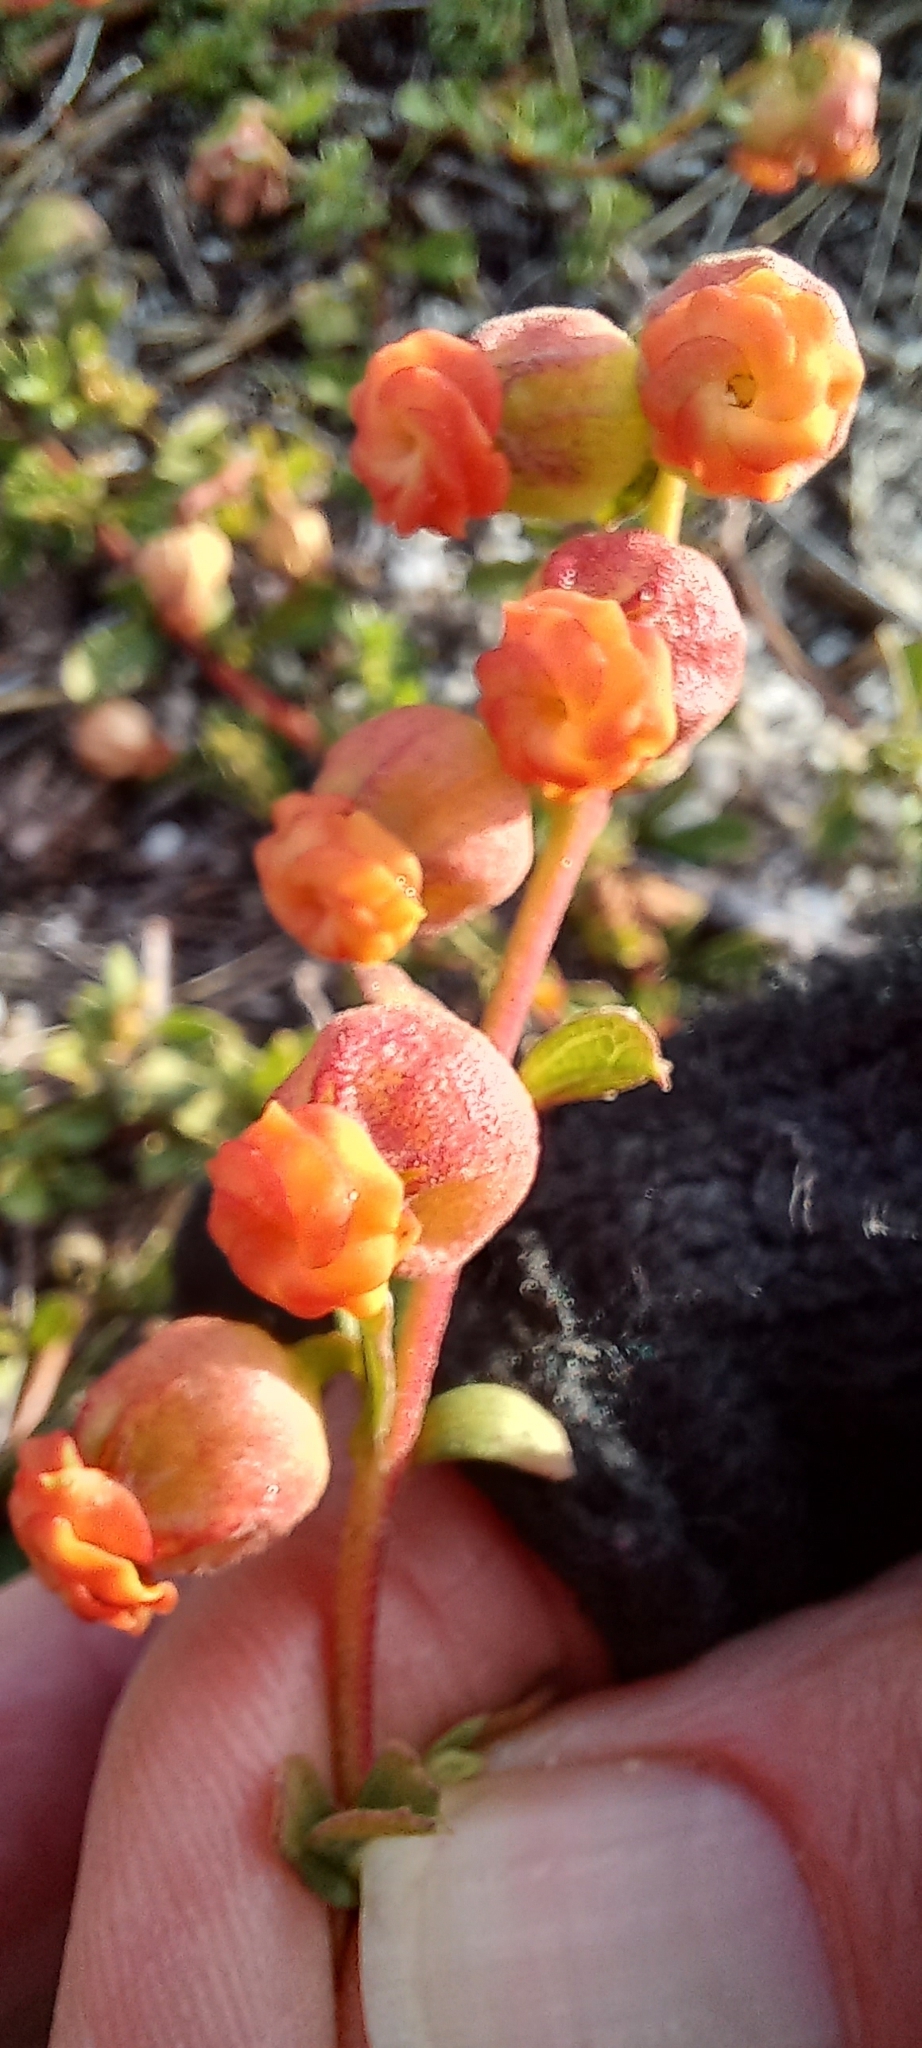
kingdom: Plantae
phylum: Tracheophyta
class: Magnoliopsida
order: Malvales
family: Malvaceae
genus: Hermannia
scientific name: Hermannia ternifolia
